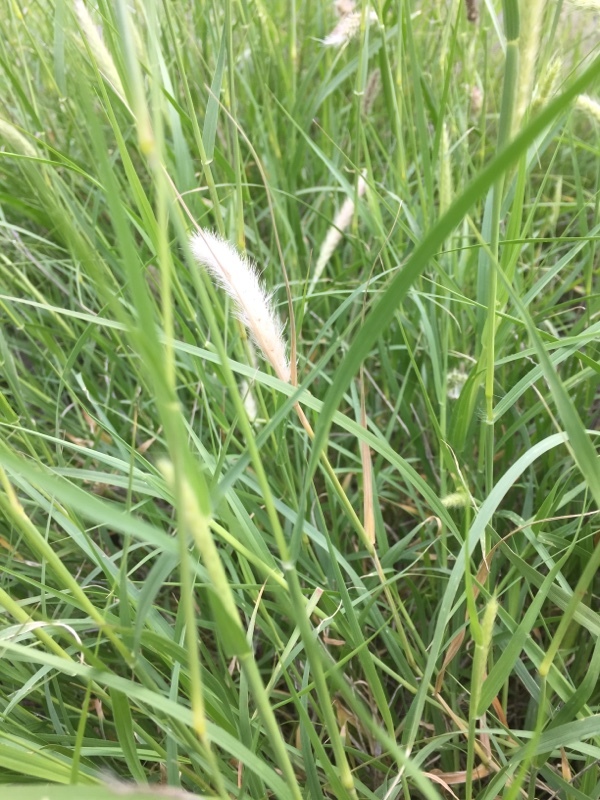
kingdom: Plantae
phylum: Tracheophyta
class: Liliopsida
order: Poales
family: Poaceae
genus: Cenchrus
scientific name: Cenchrus ciliaris
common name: Buffelgrass
